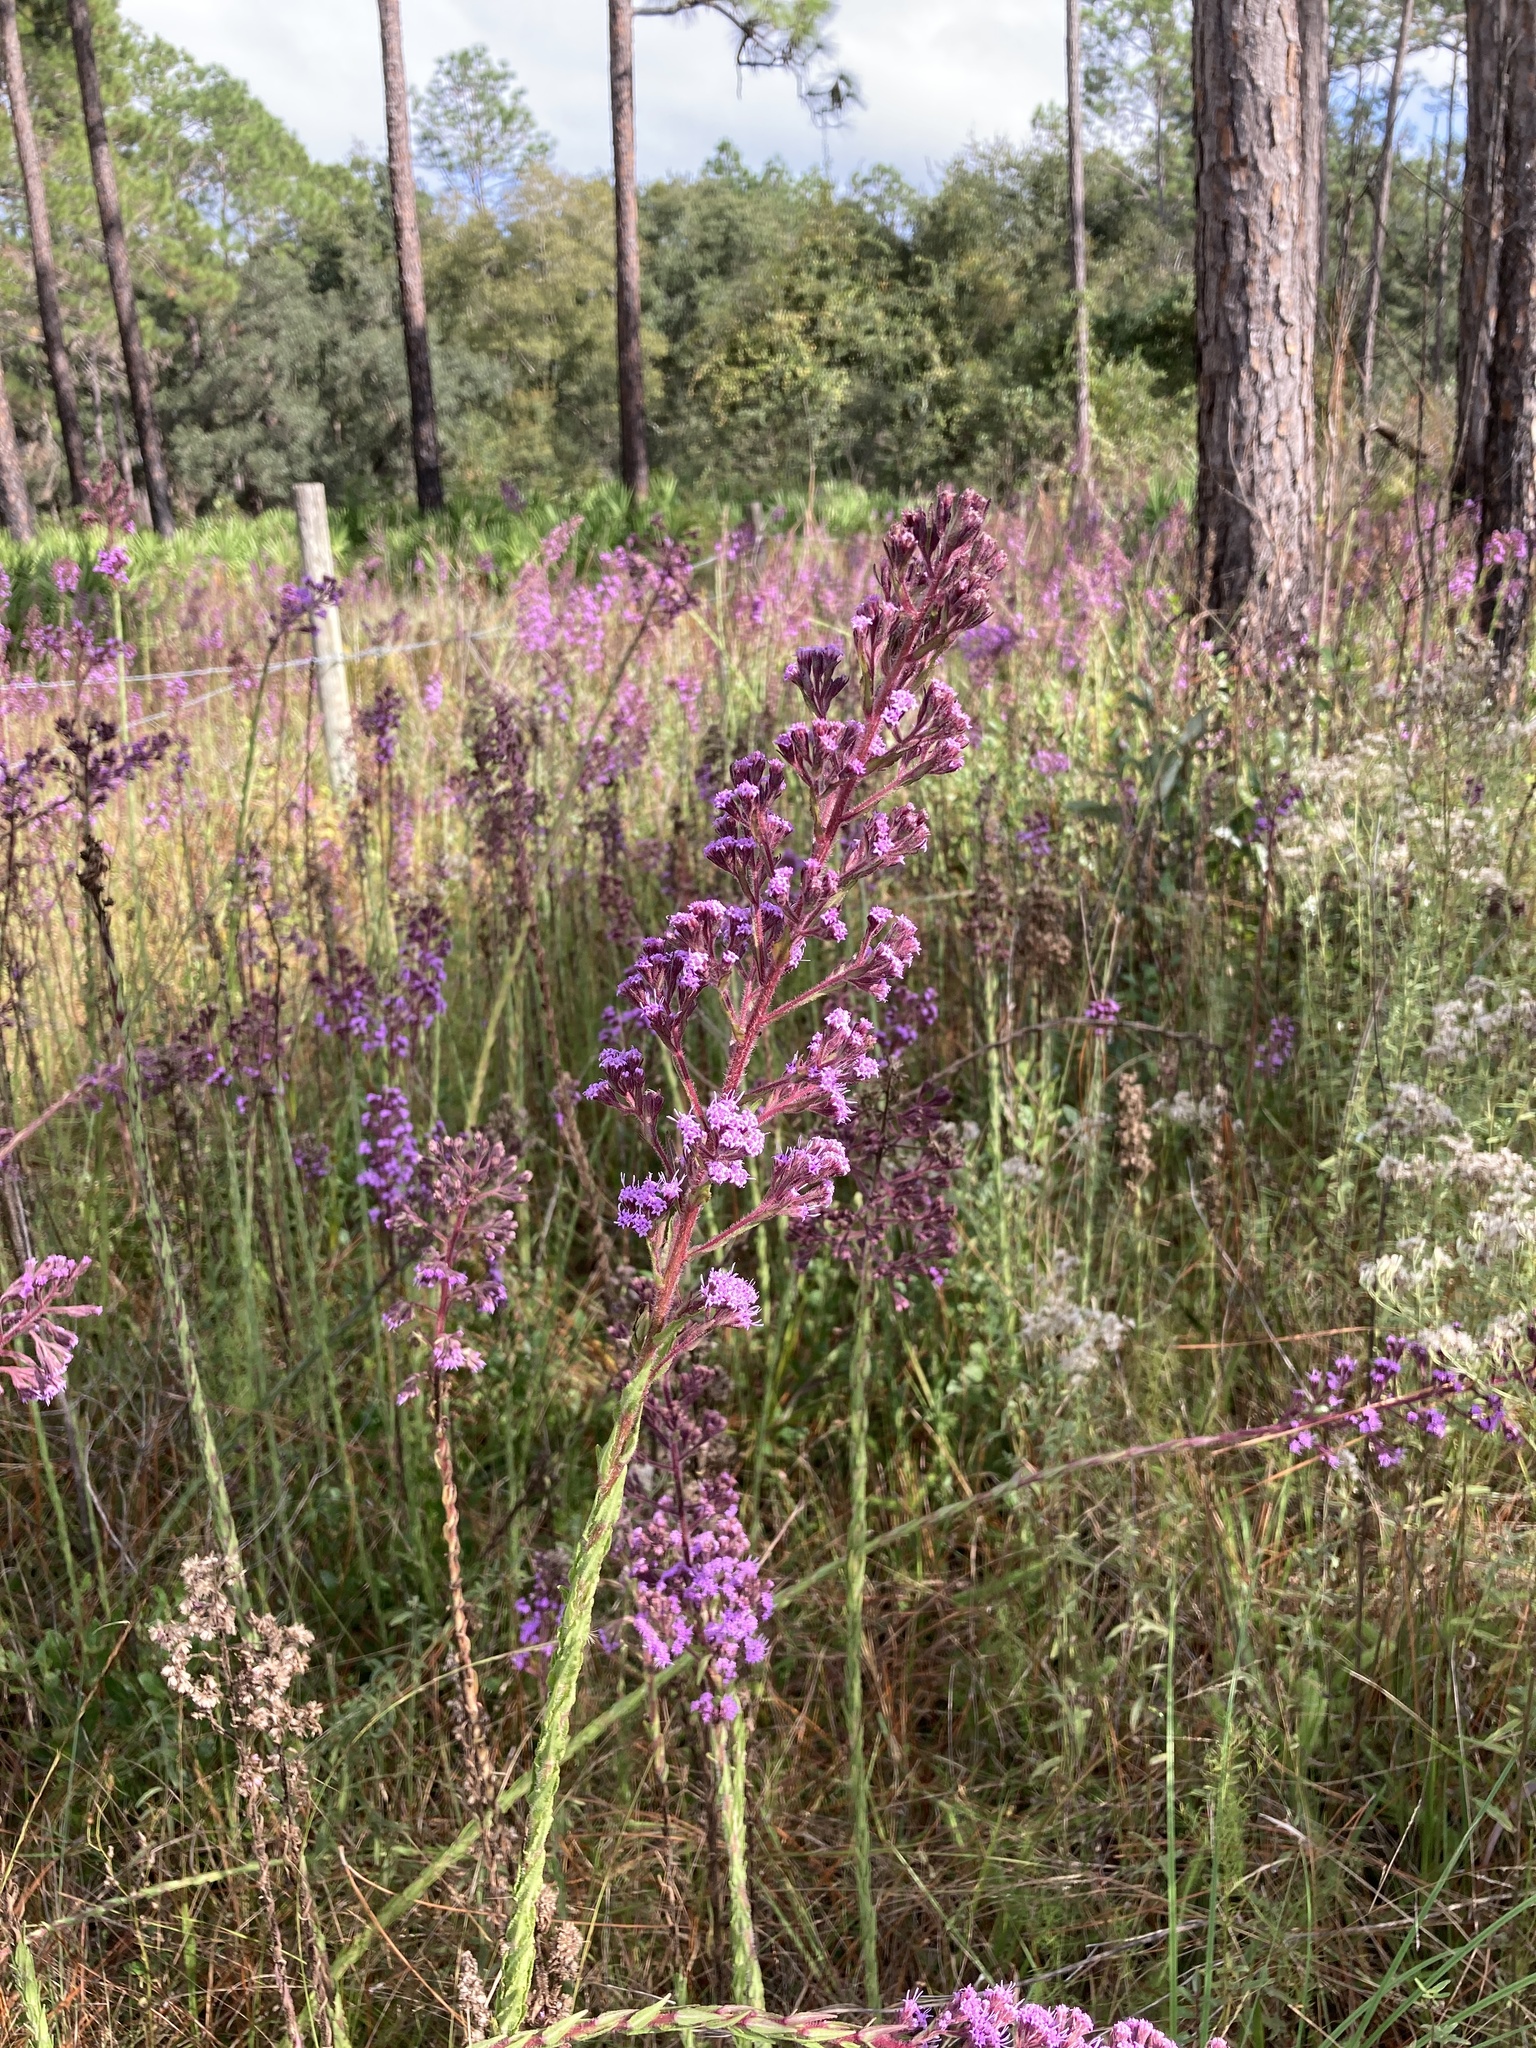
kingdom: Plantae
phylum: Tracheophyta
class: Magnoliopsida
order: Asterales
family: Asteraceae
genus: Carphephorus
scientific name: Carphephorus paniculatus
